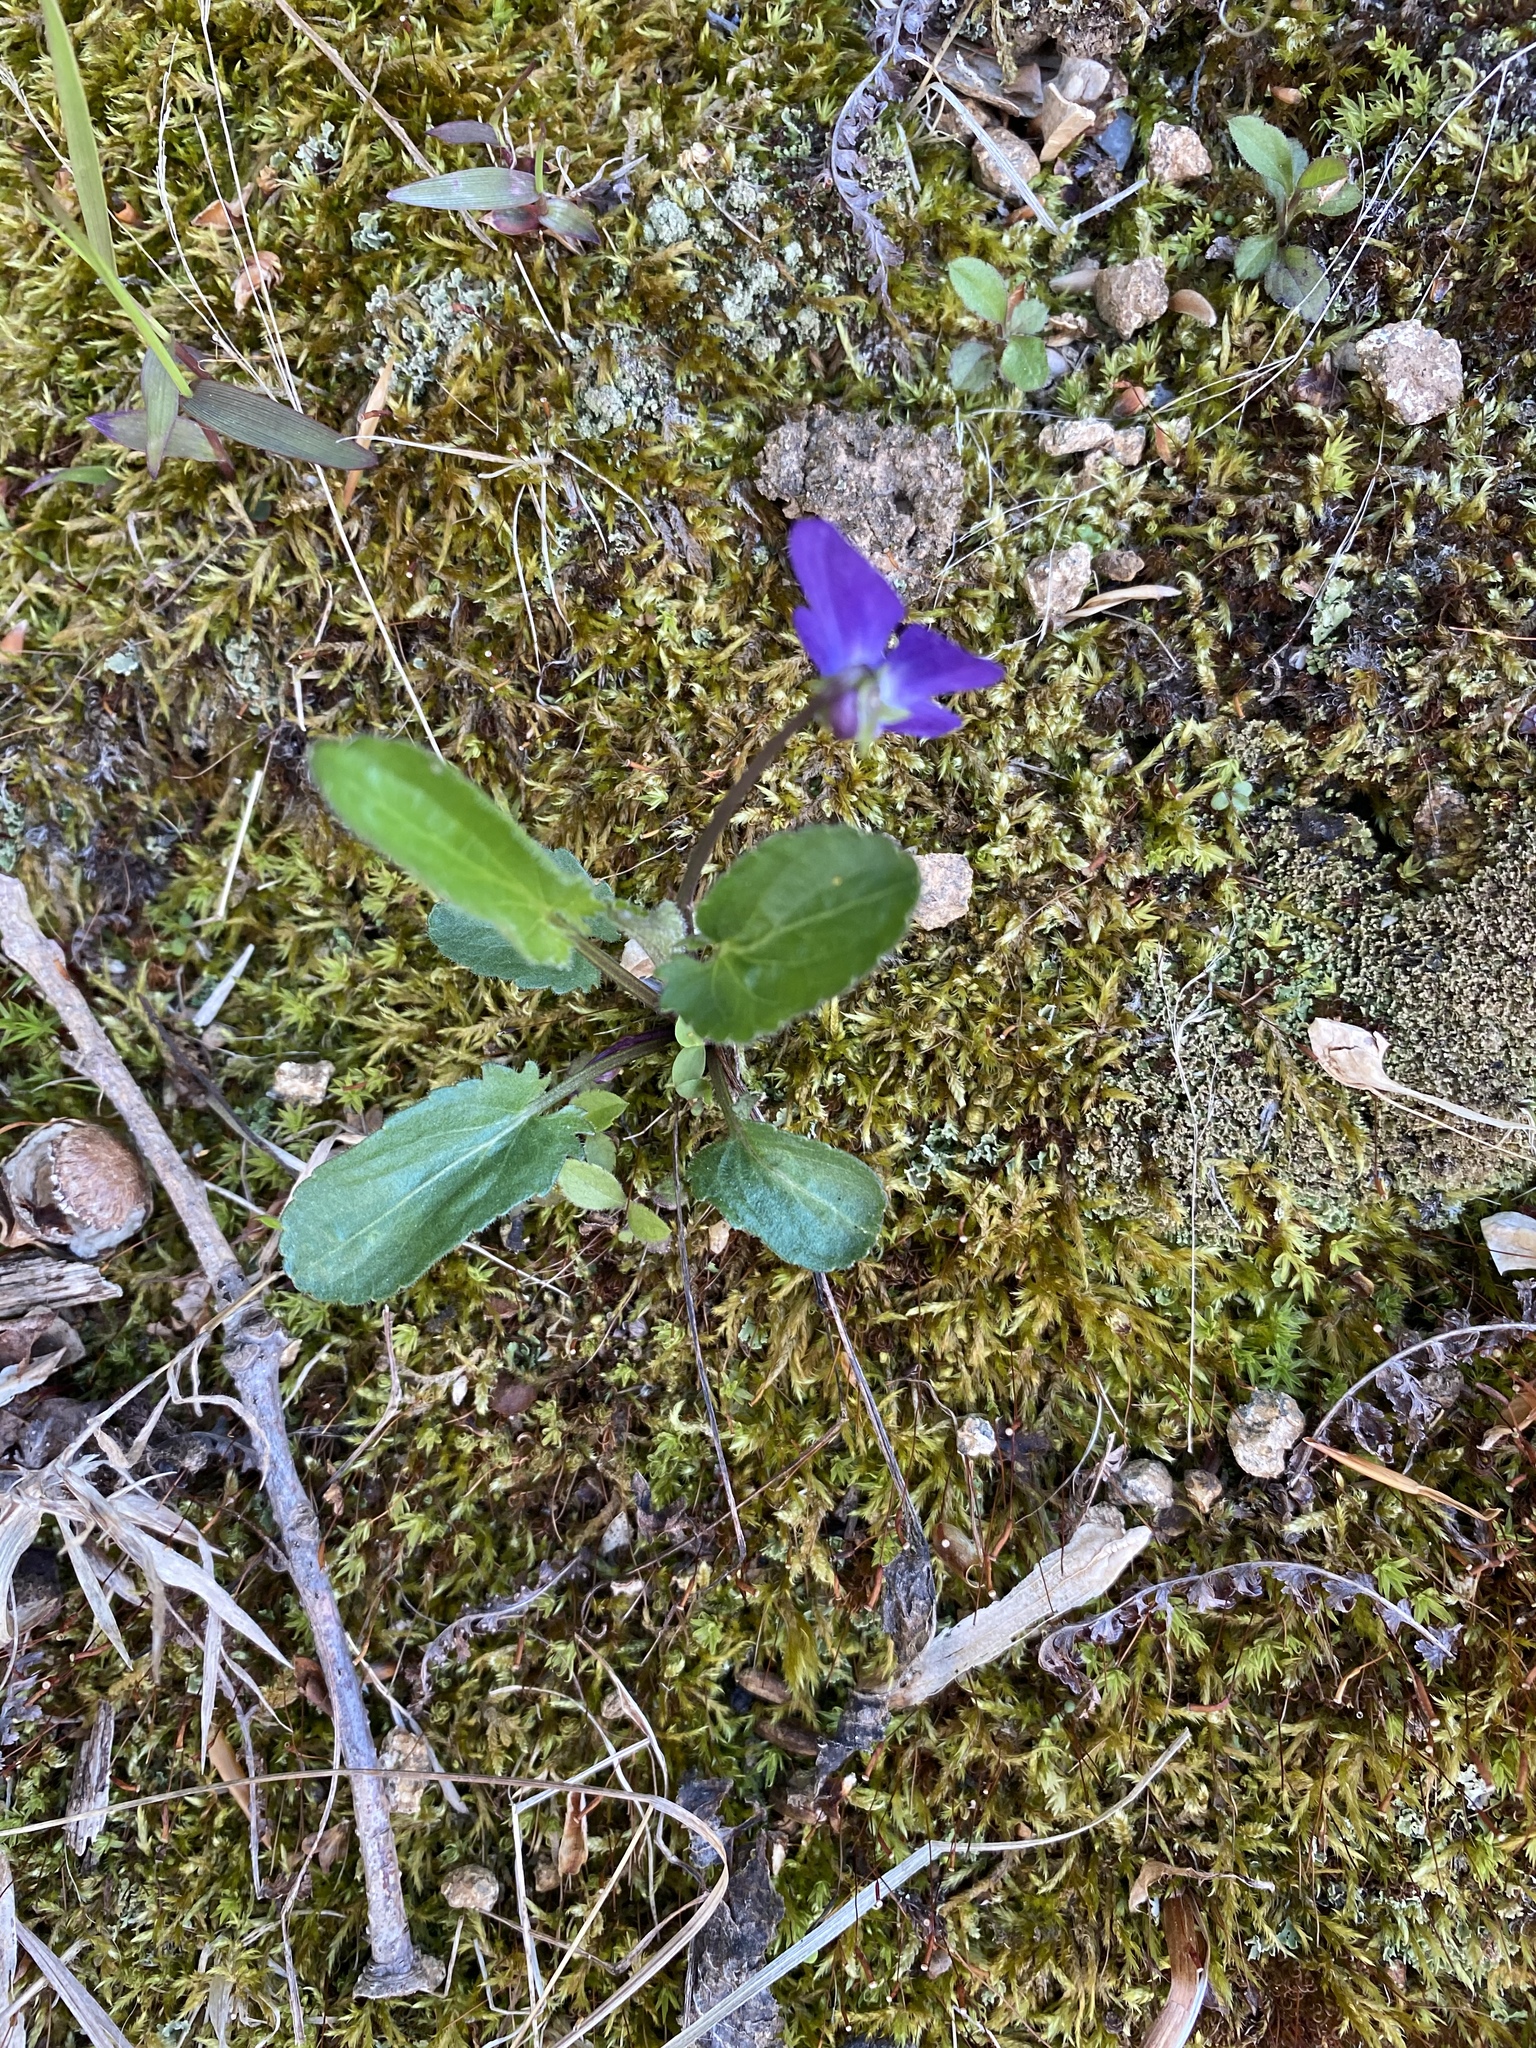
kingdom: Plantae
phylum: Tracheophyta
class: Magnoliopsida
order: Malpighiales
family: Violaceae
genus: Viola
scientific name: Viola sagittata
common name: Arrowhead violet
